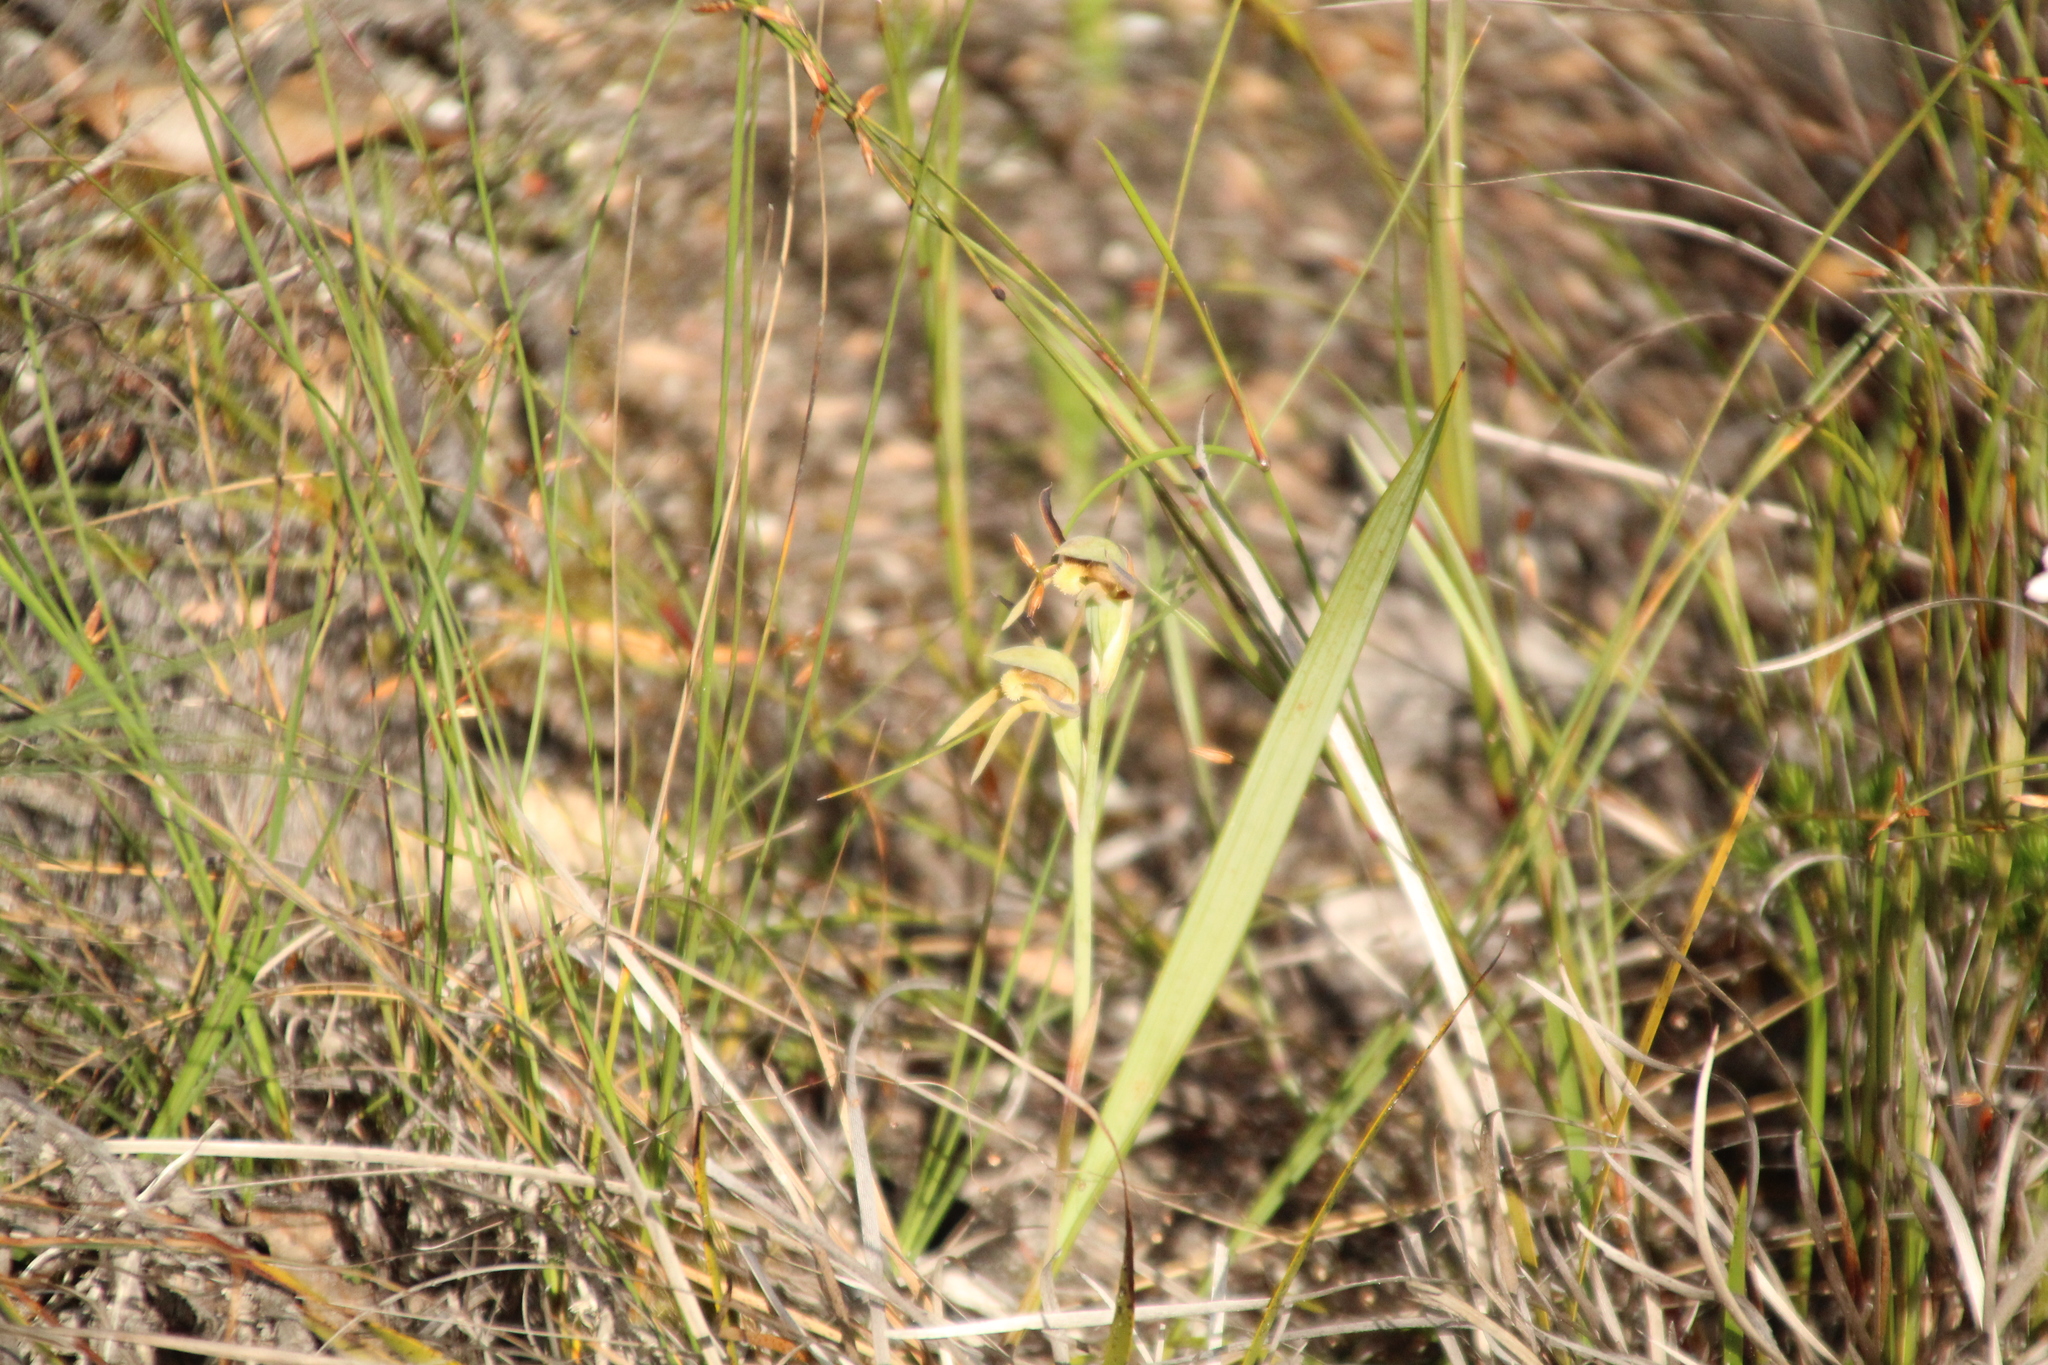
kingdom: Plantae
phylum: Tracheophyta
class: Liliopsida
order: Asparagales
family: Orchidaceae
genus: Lyperanthus
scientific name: Lyperanthus serratus
